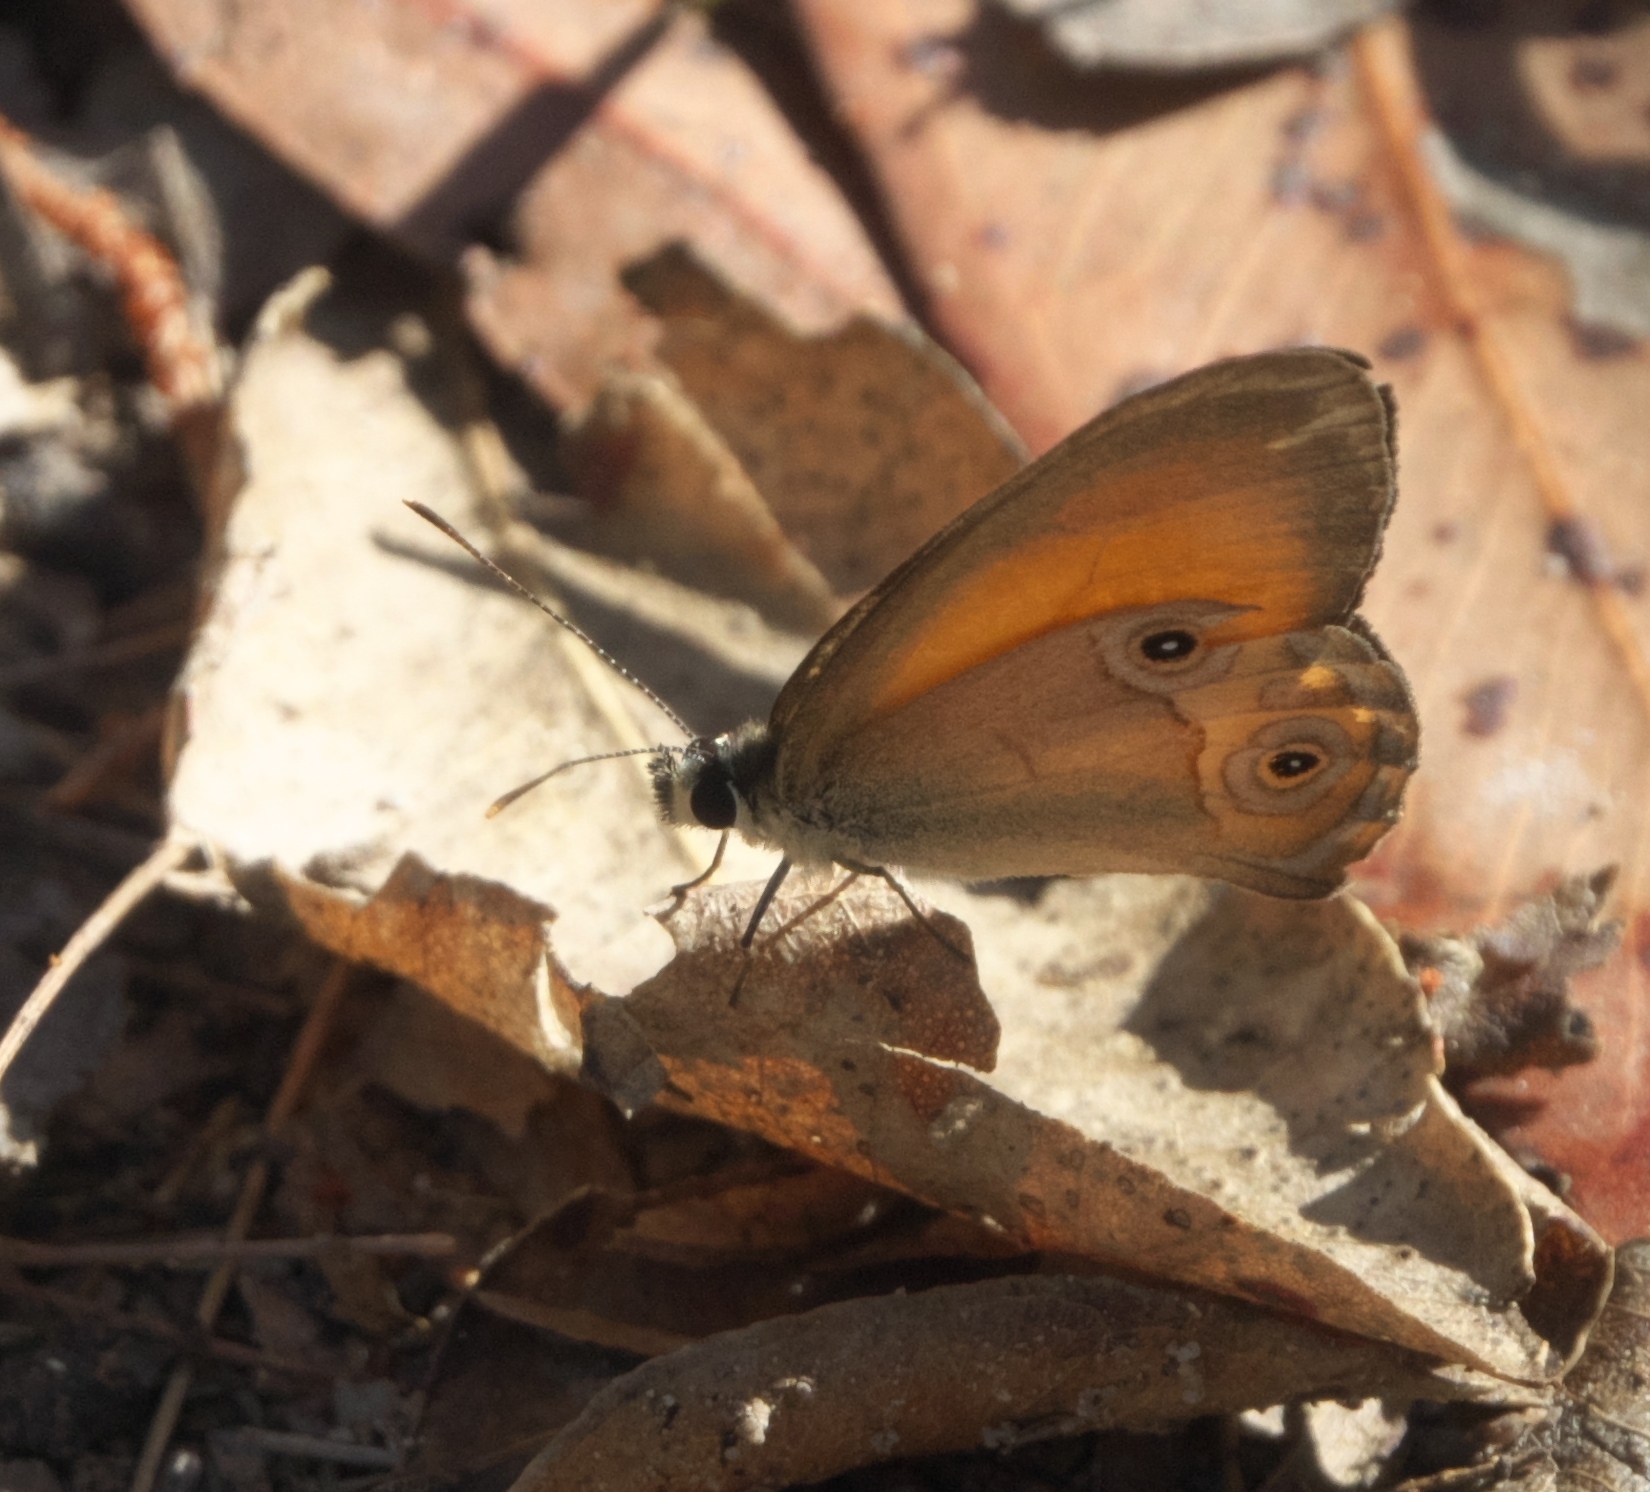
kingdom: Animalia
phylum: Arthropoda
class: Insecta
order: Lepidoptera
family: Nymphalidae
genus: Hypocysta
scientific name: Hypocysta adiante
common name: Orange ringlet
